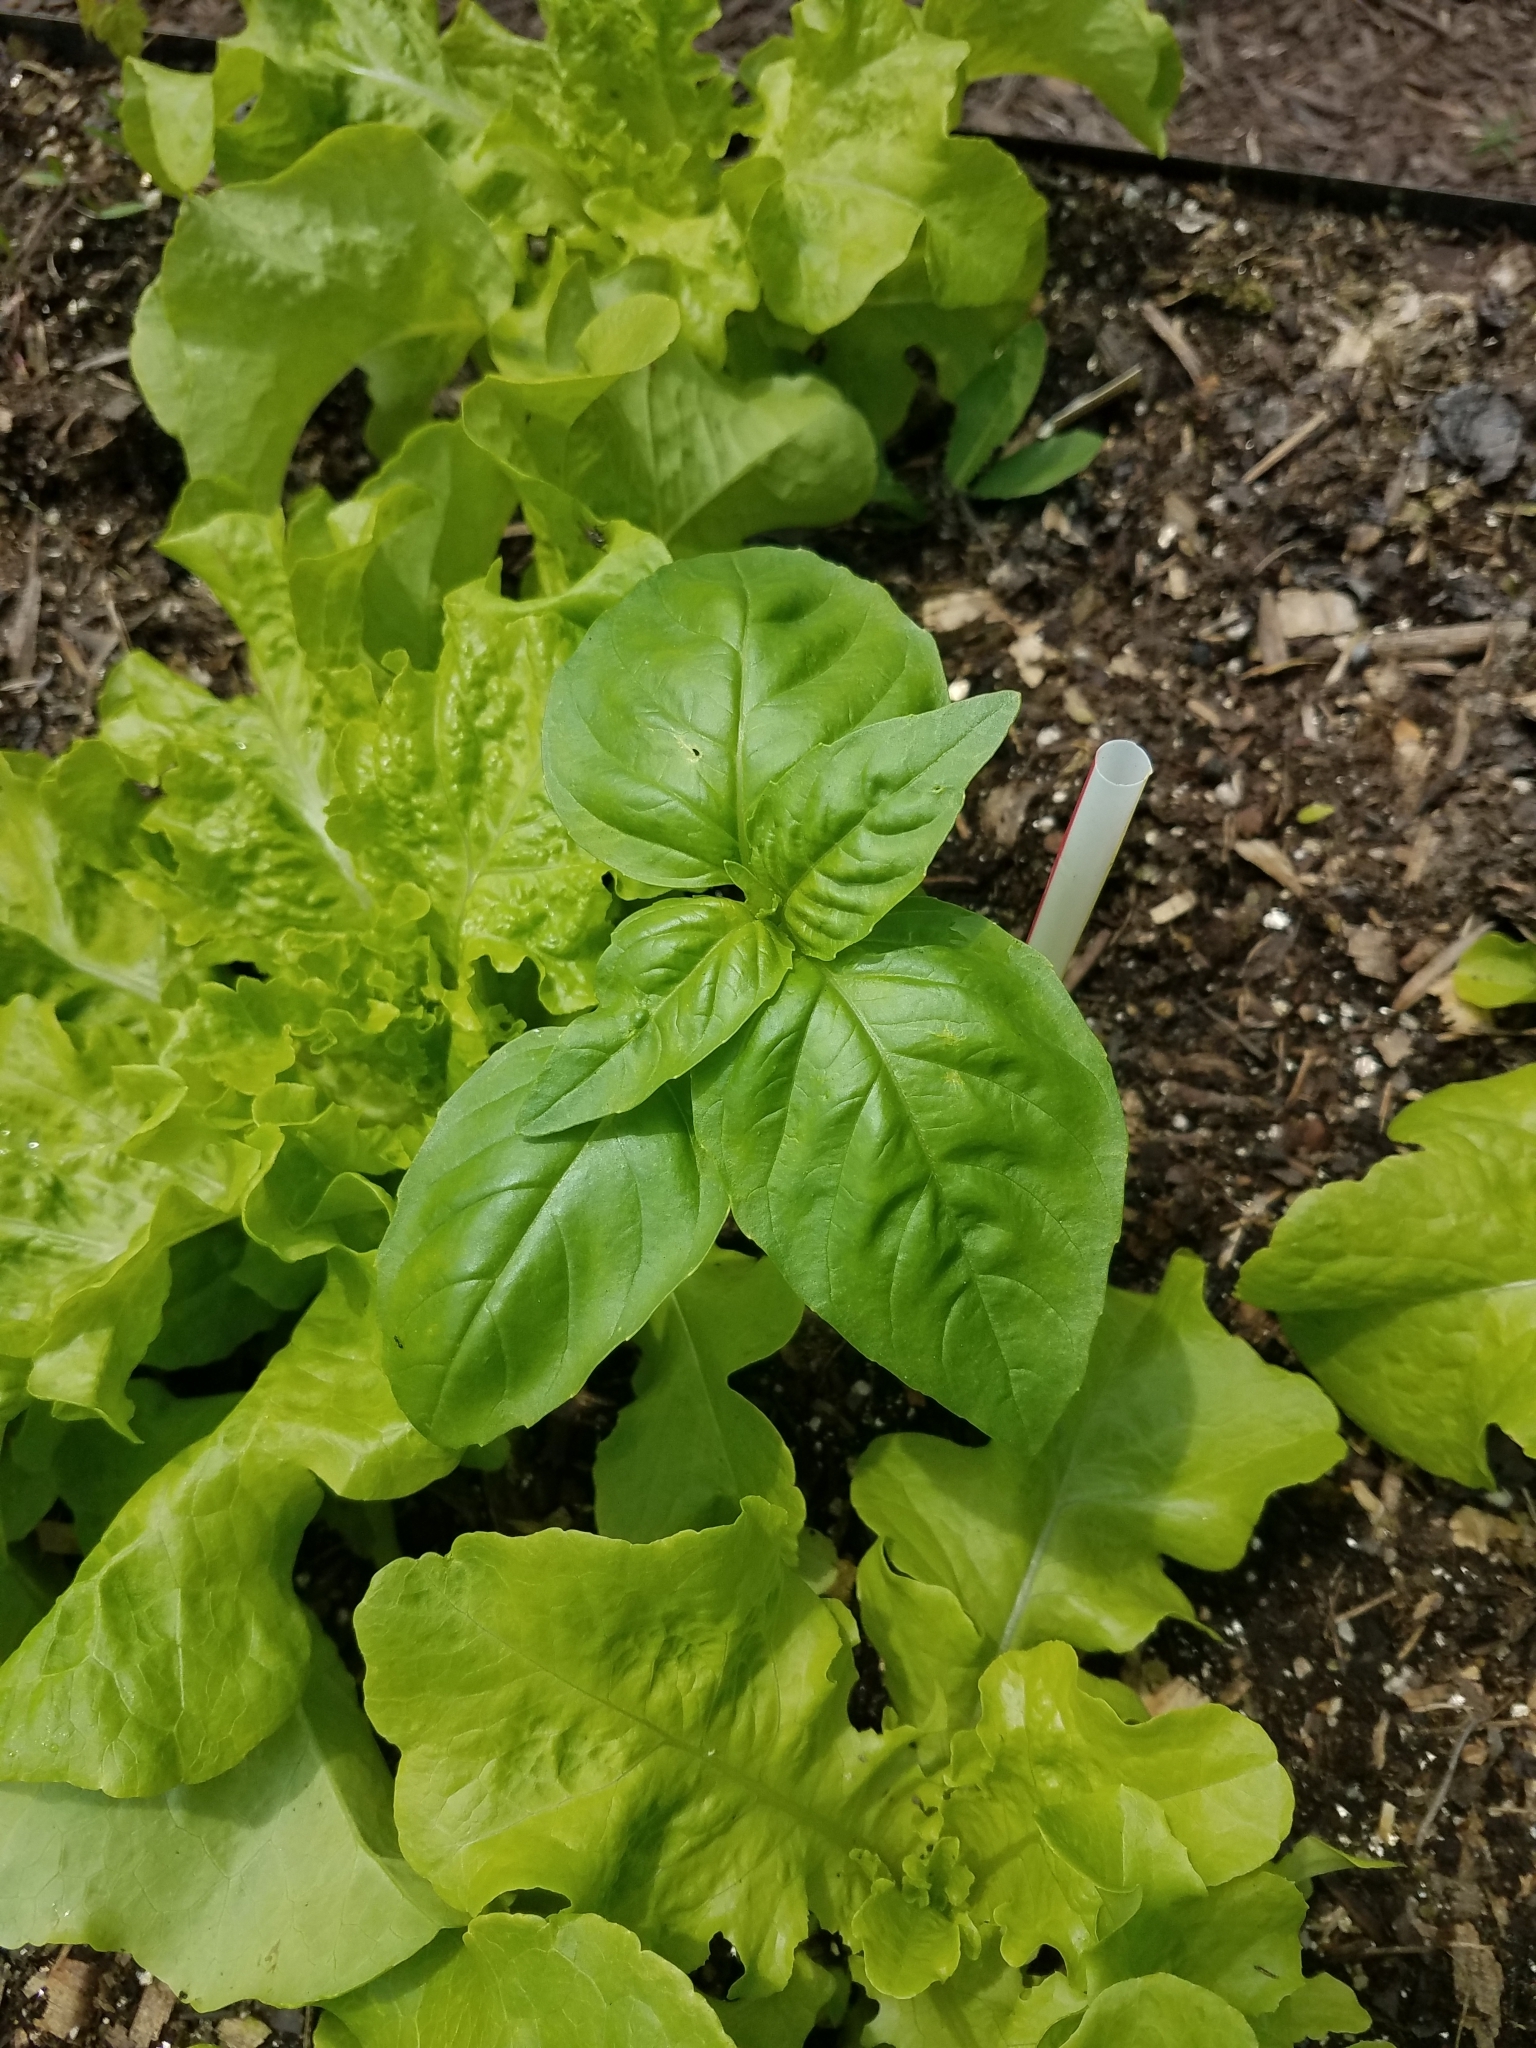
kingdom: Plantae
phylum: Tracheophyta
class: Magnoliopsida
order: Lamiales
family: Lamiaceae
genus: Ocimum
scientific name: Ocimum basilicum
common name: Sweet basil
